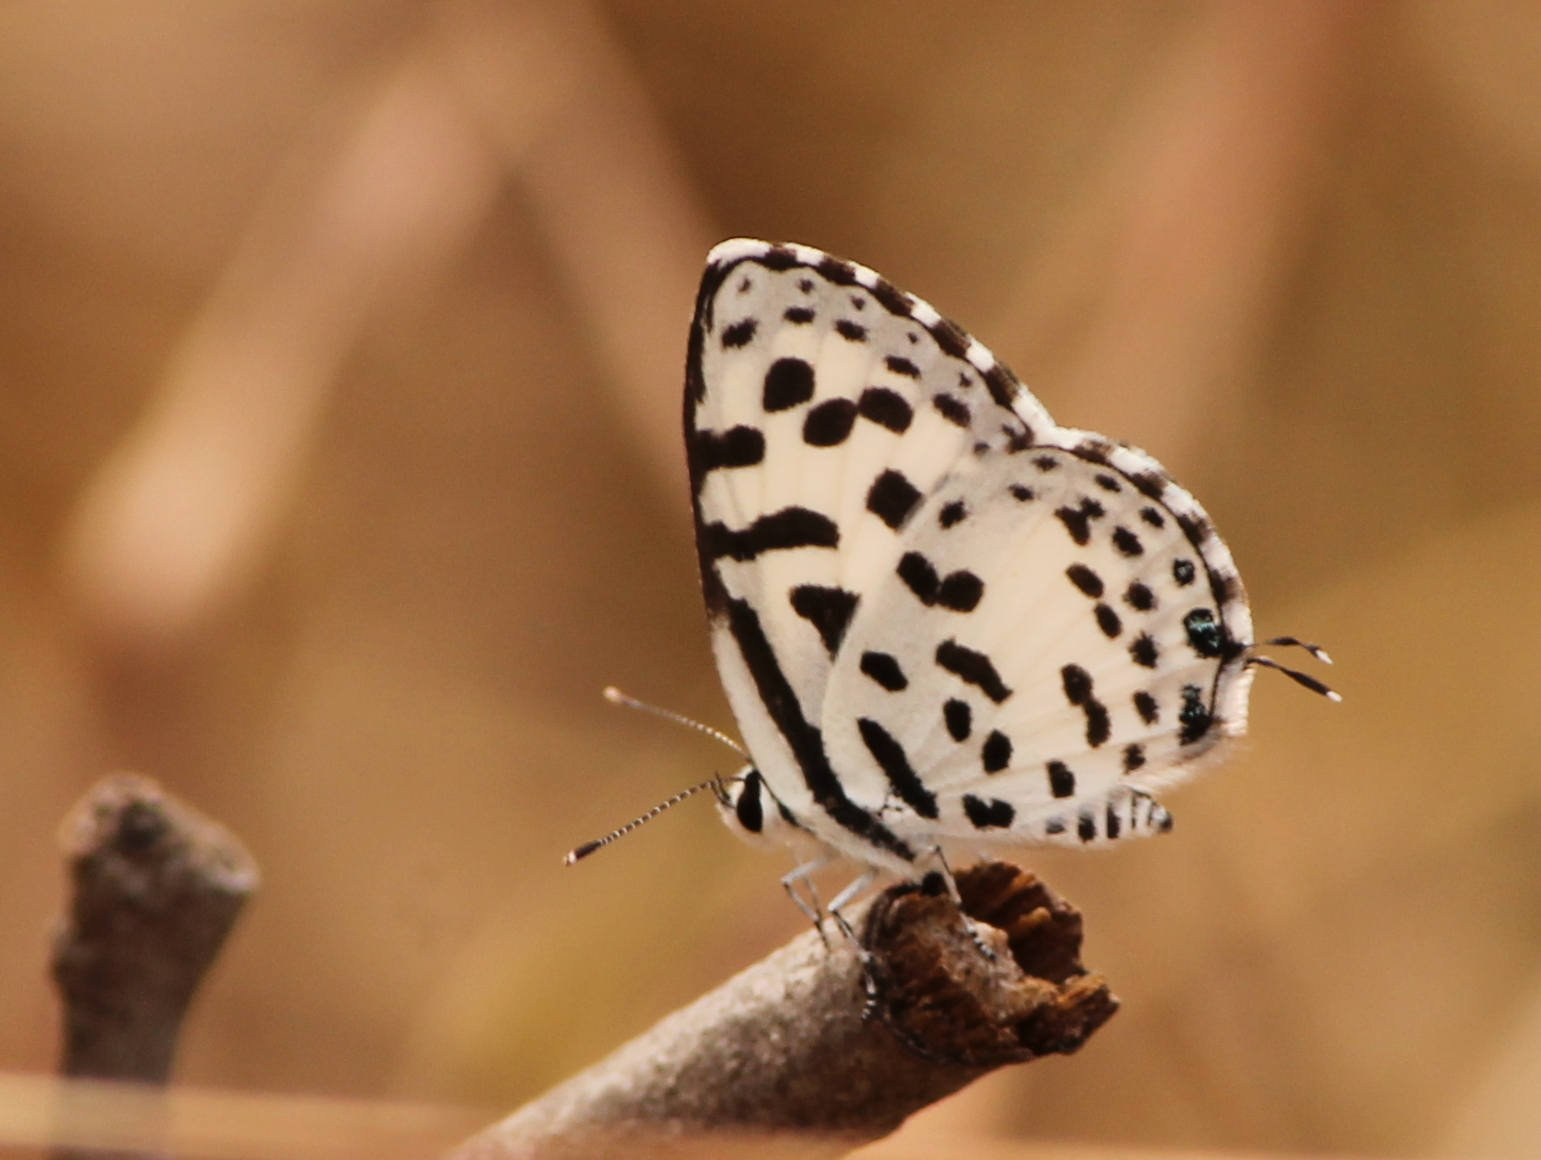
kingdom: Animalia
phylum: Arthropoda
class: Insecta
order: Lepidoptera
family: Lycaenidae
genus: Castalius
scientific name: Castalius rosimon
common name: Common pierrot
